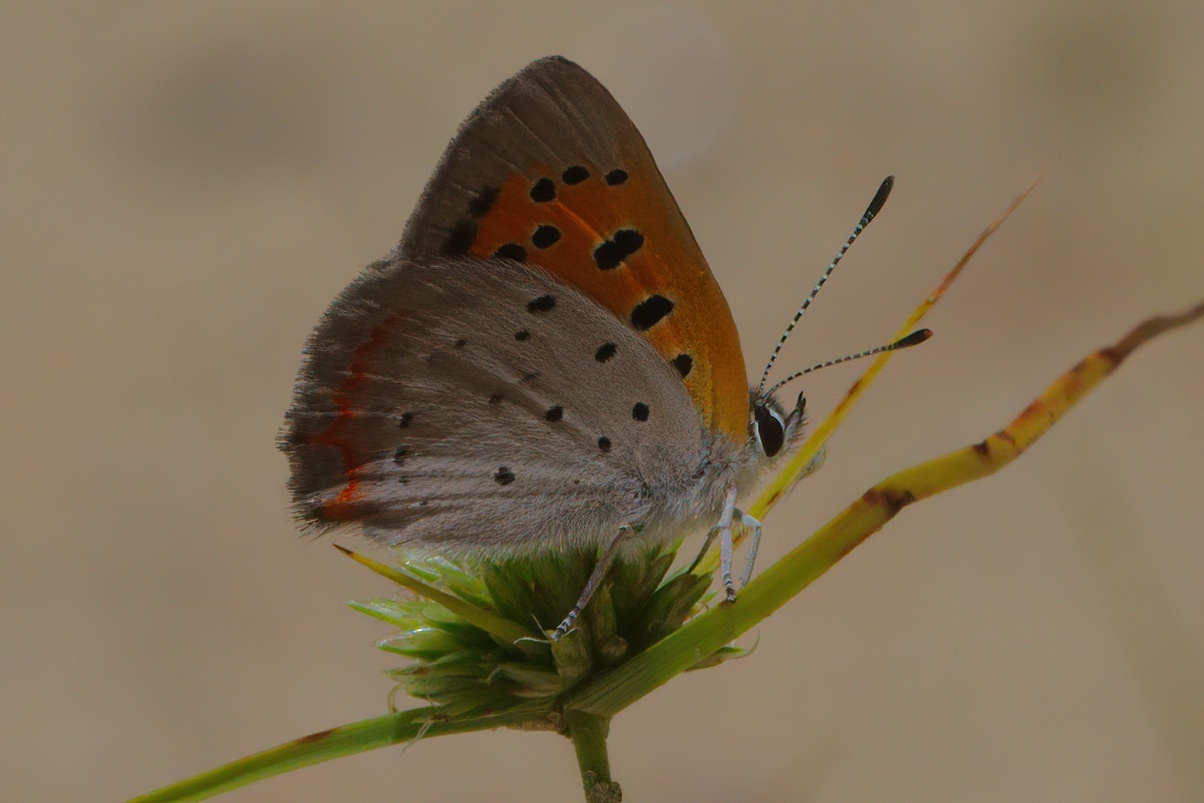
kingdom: Animalia
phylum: Arthropoda
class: Insecta
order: Lepidoptera
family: Lycaenidae
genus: Lycaena
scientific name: Lycaena hypophlaeas
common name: American copper
